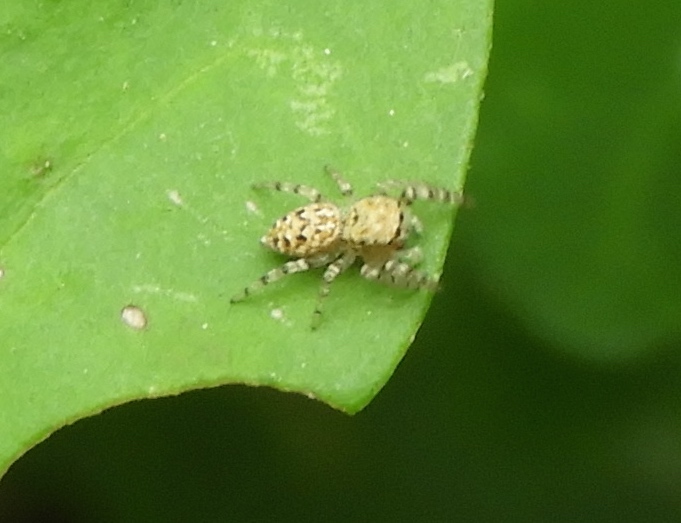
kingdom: Animalia
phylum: Arthropoda
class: Arachnida
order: Araneae
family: Salticidae
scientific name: Salticidae
